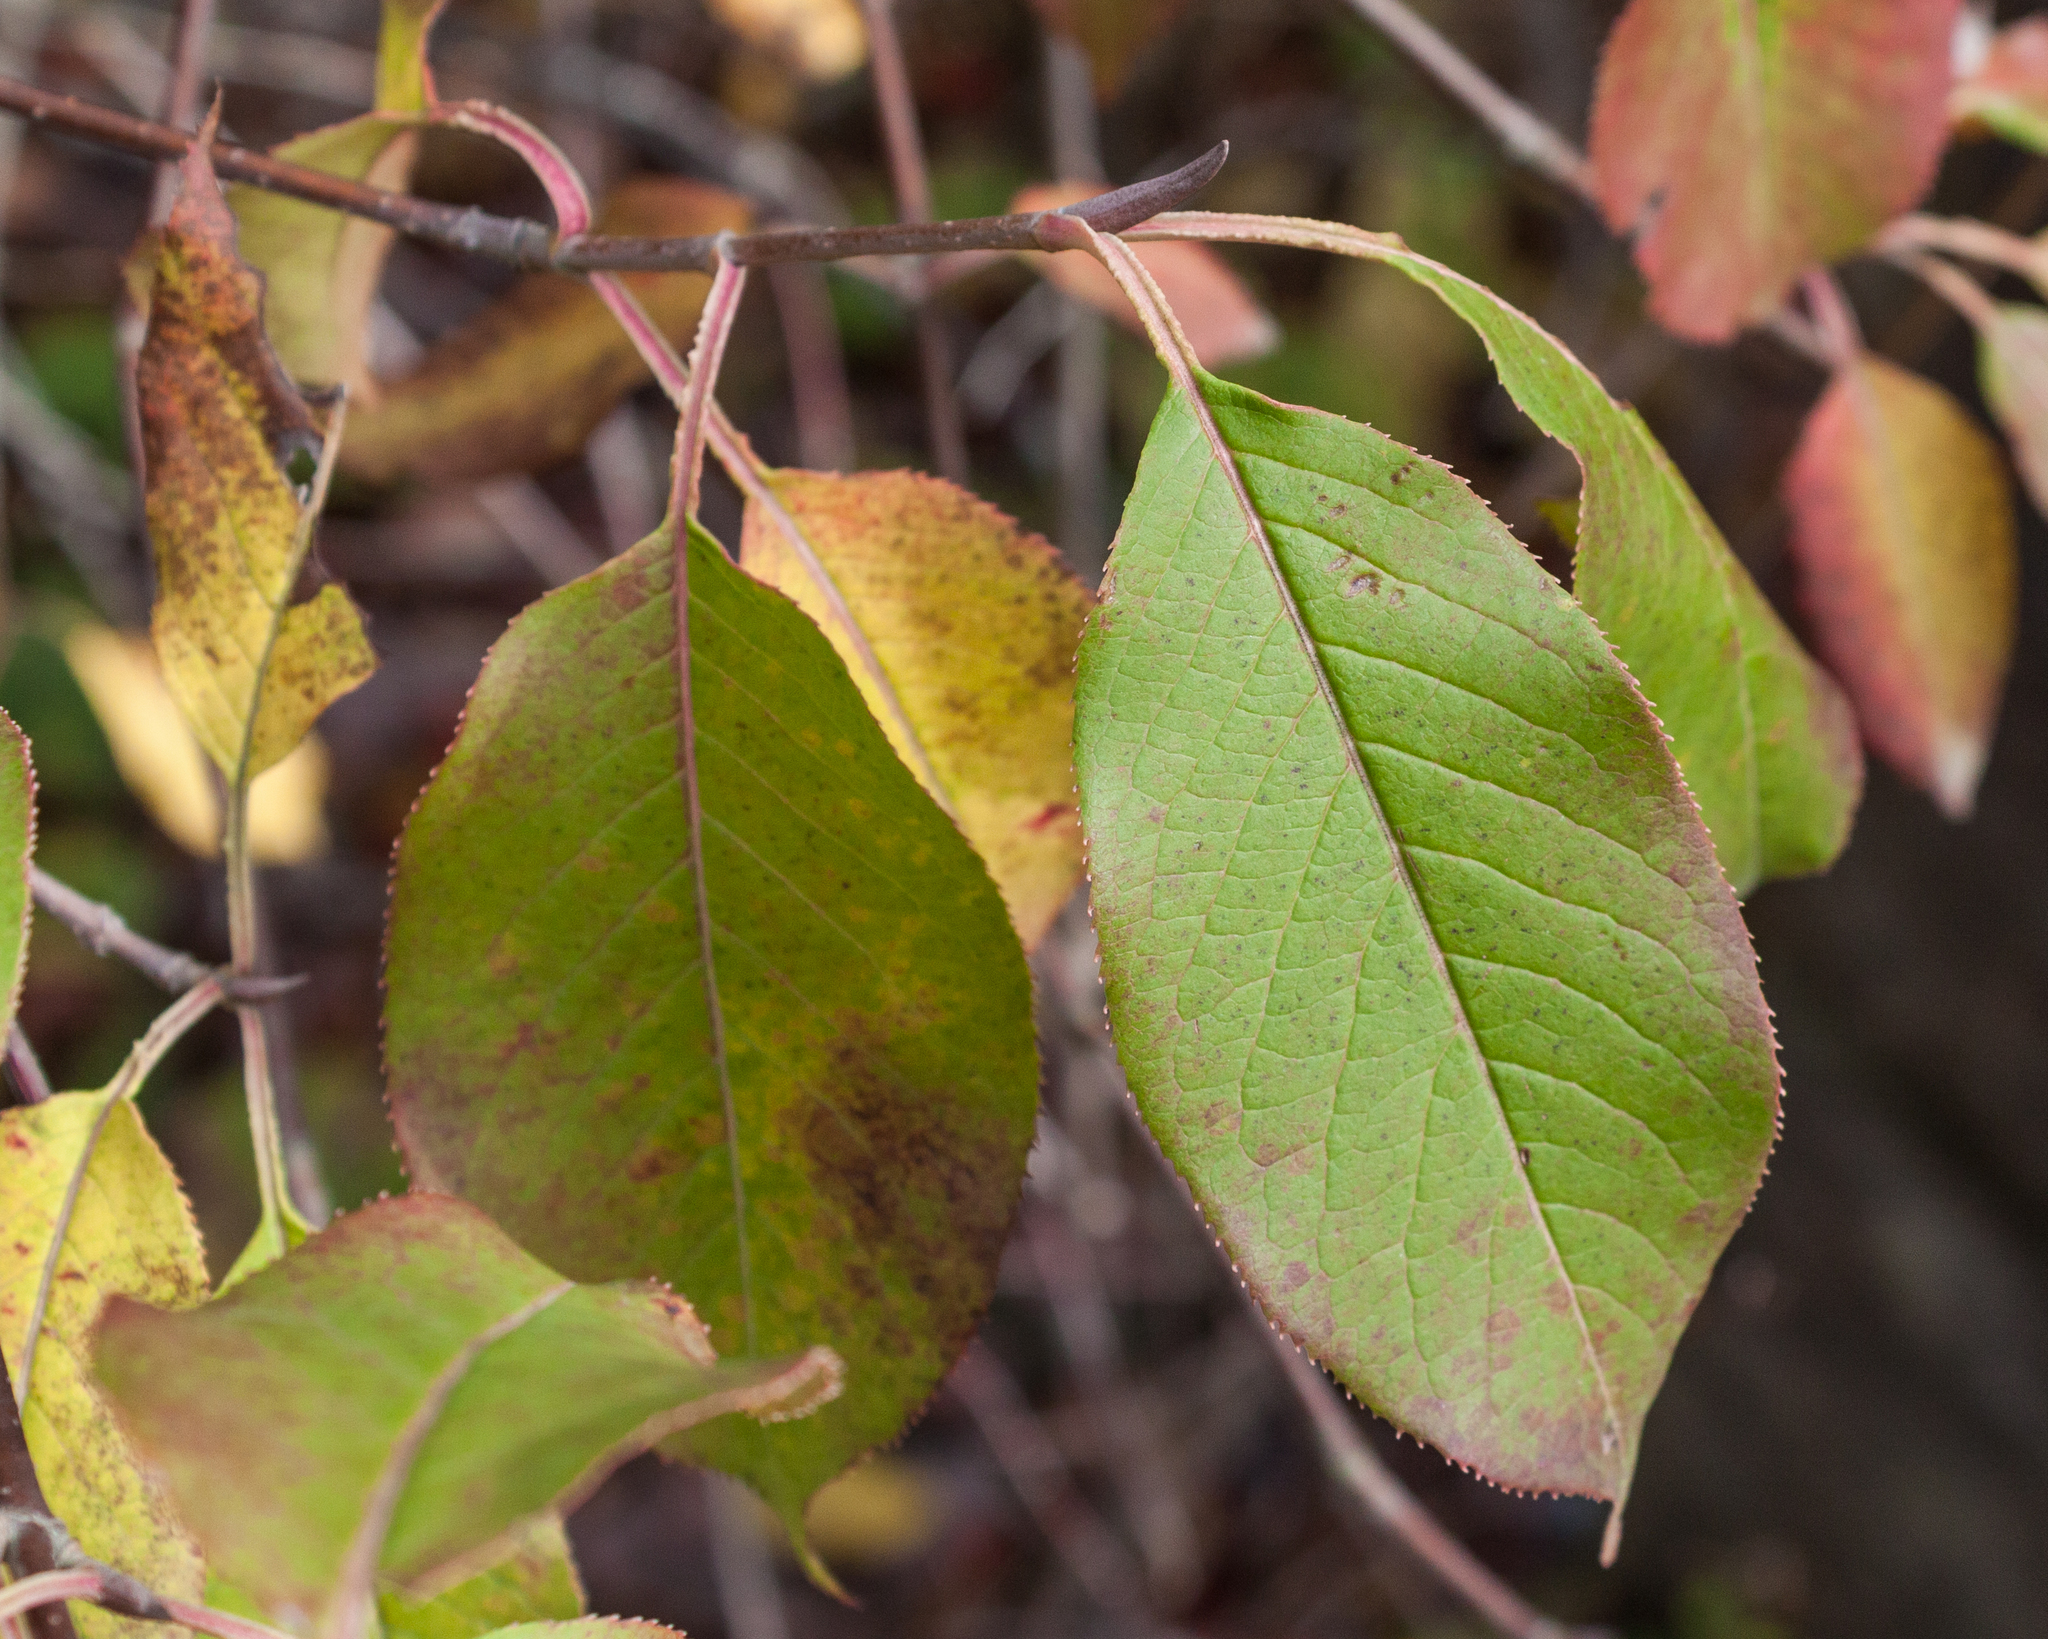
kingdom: Plantae
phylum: Tracheophyta
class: Magnoliopsida
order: Dipsacales
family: Viburnaceae
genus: Viburnum
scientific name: Viburnum lentago
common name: Black haw
